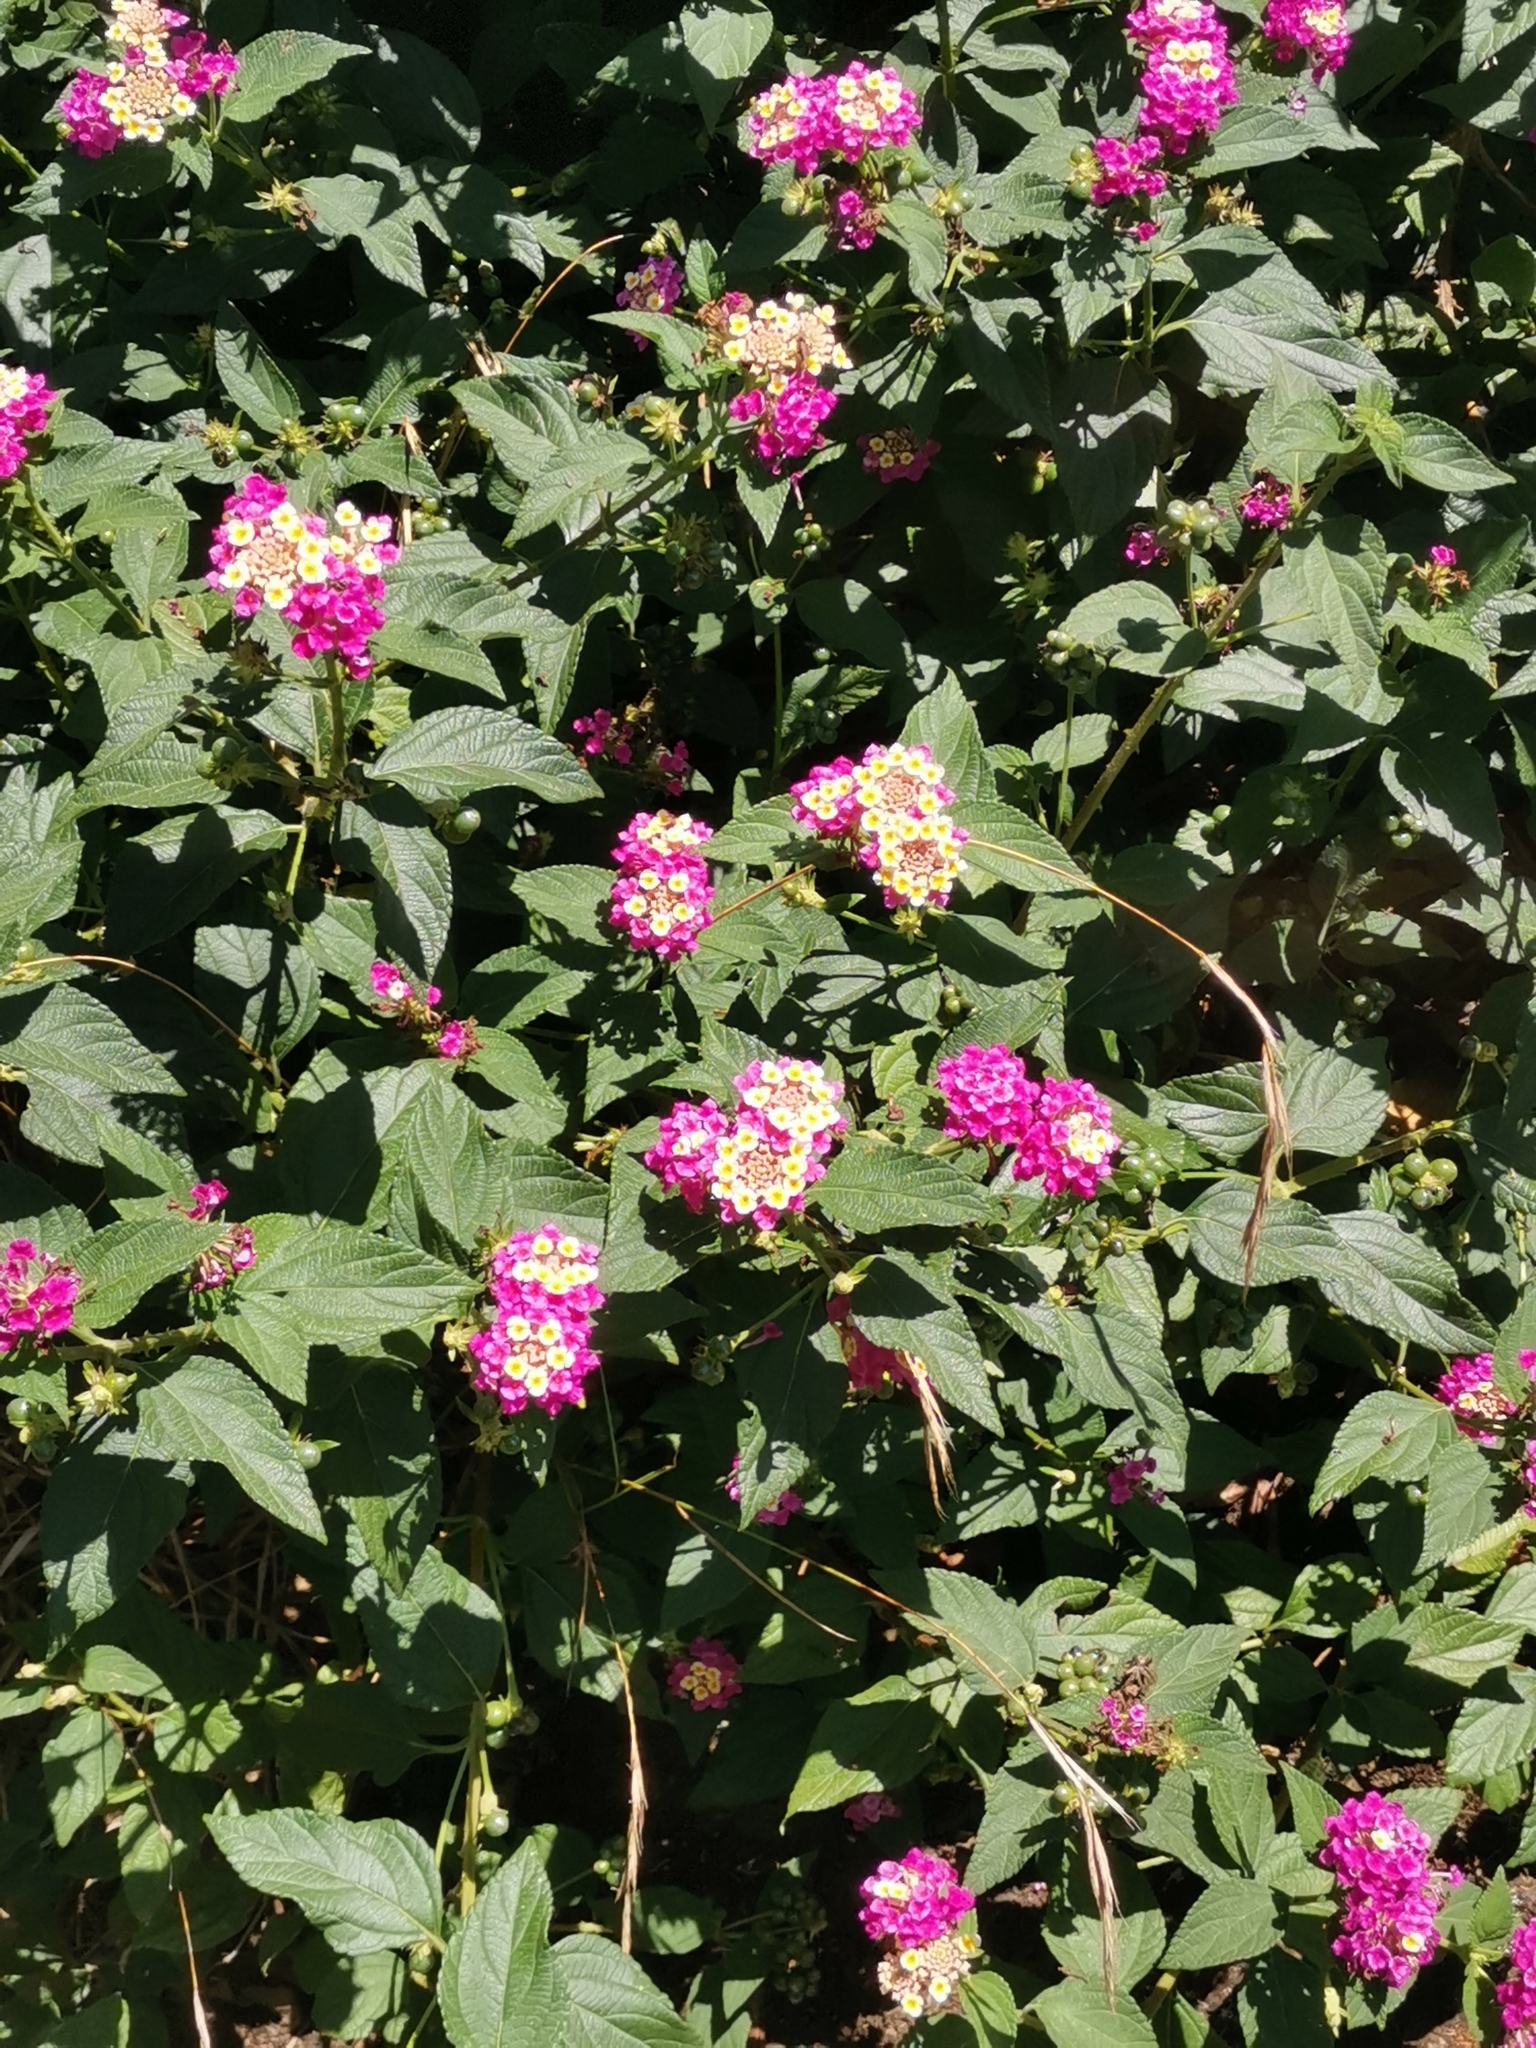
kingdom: Plantae
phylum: Tracheophyta
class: Magnoliopsida
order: Lamiales
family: Verbenaceae
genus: Lantana
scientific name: Lantana camara
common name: Lantana
